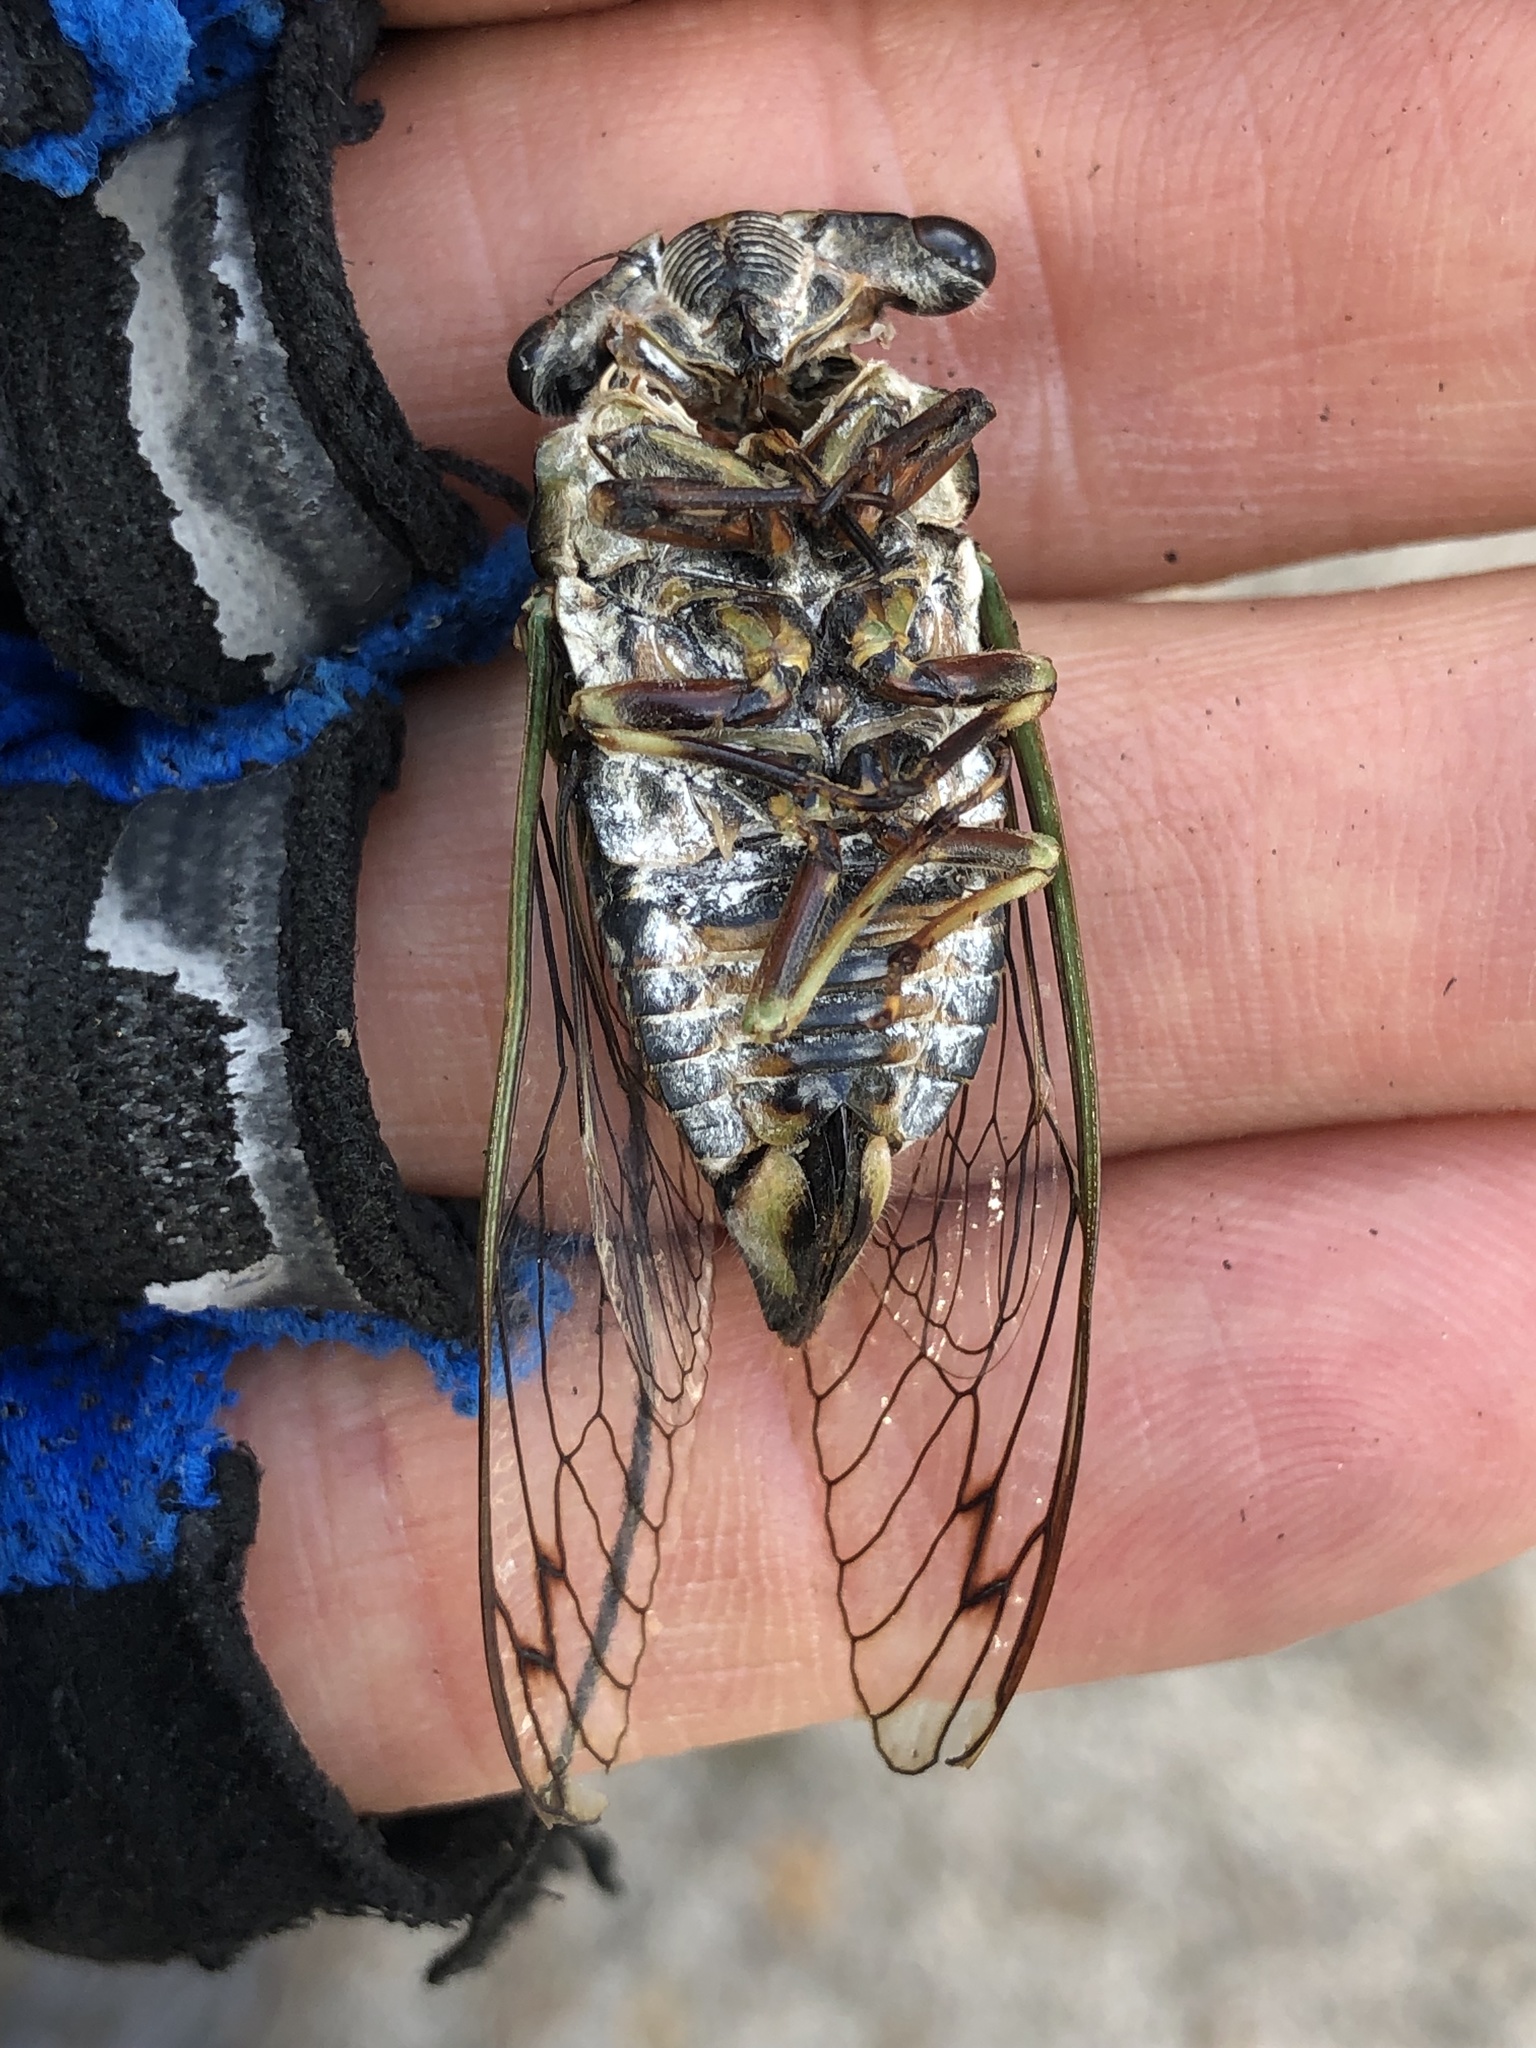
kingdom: Animalia
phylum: Arthropoda
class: Insecta
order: Hemiptera
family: Cicadidae
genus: Neotibicen
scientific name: Neotibicen davisi
